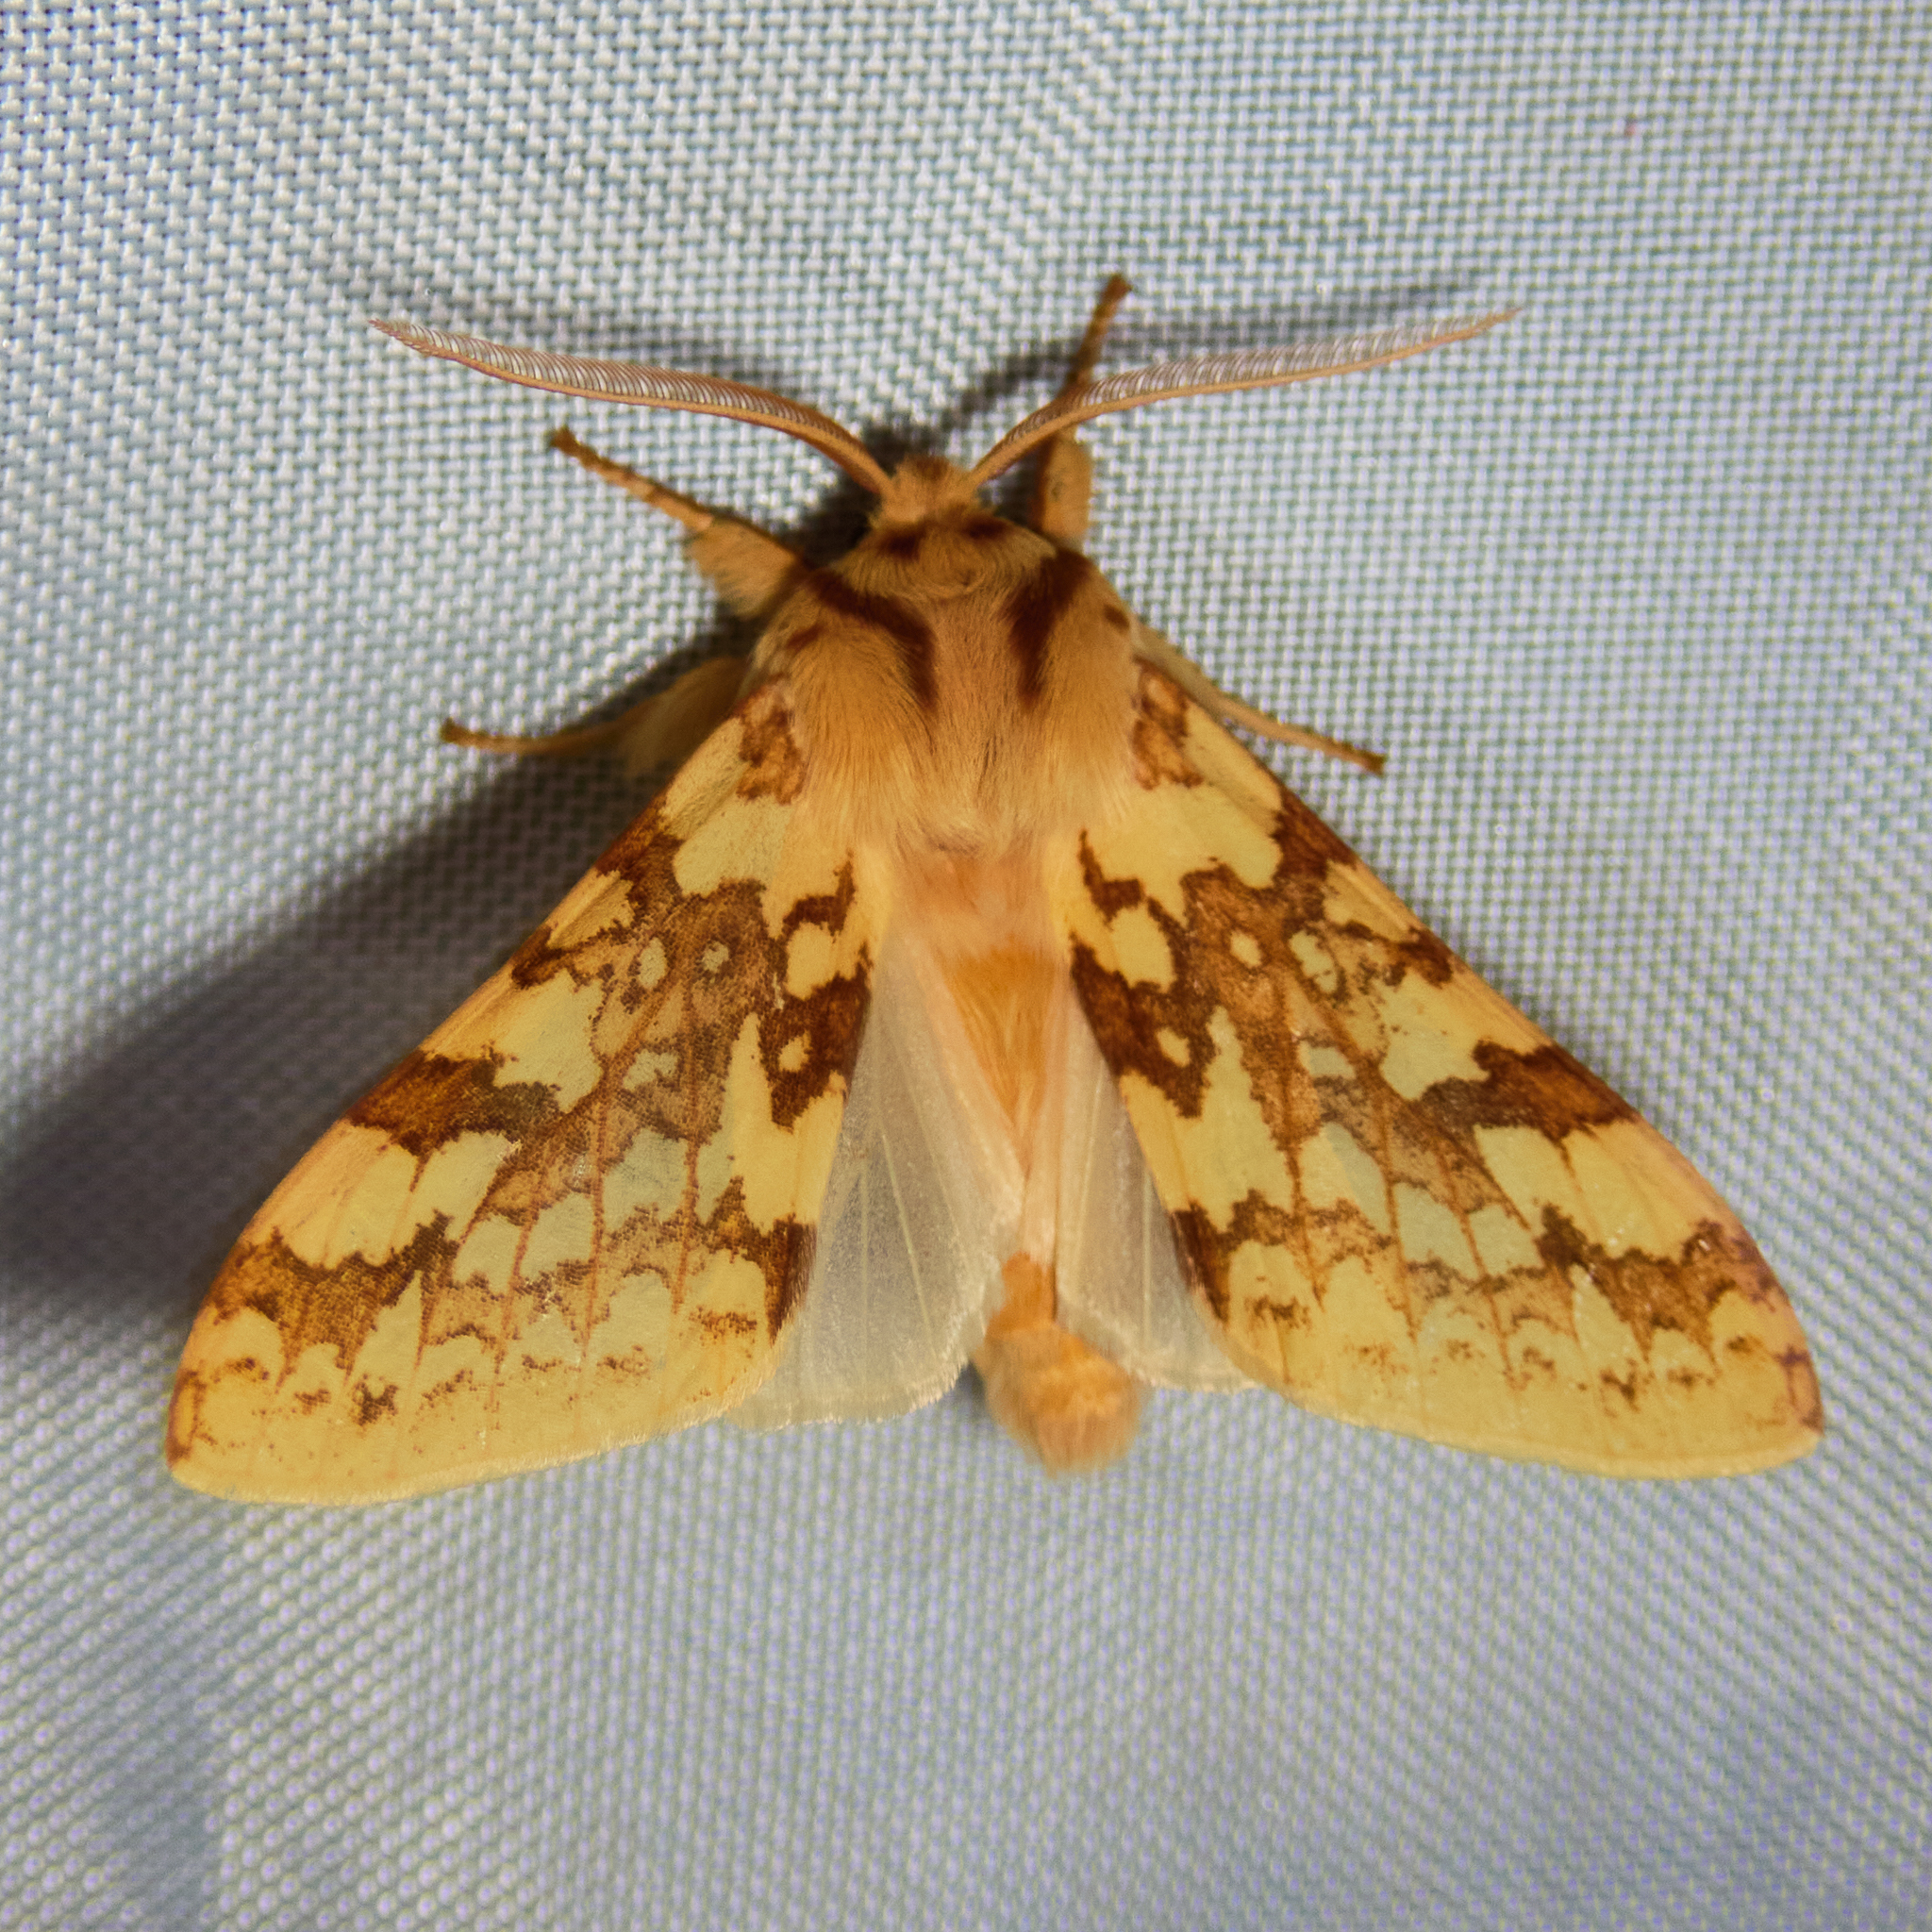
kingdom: Animalia
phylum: Arthropoda
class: Insecta
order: Lepidoptera
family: Erebidae
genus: Lophocampa
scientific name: Lophocampa maculata
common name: Spotted tussock moth
